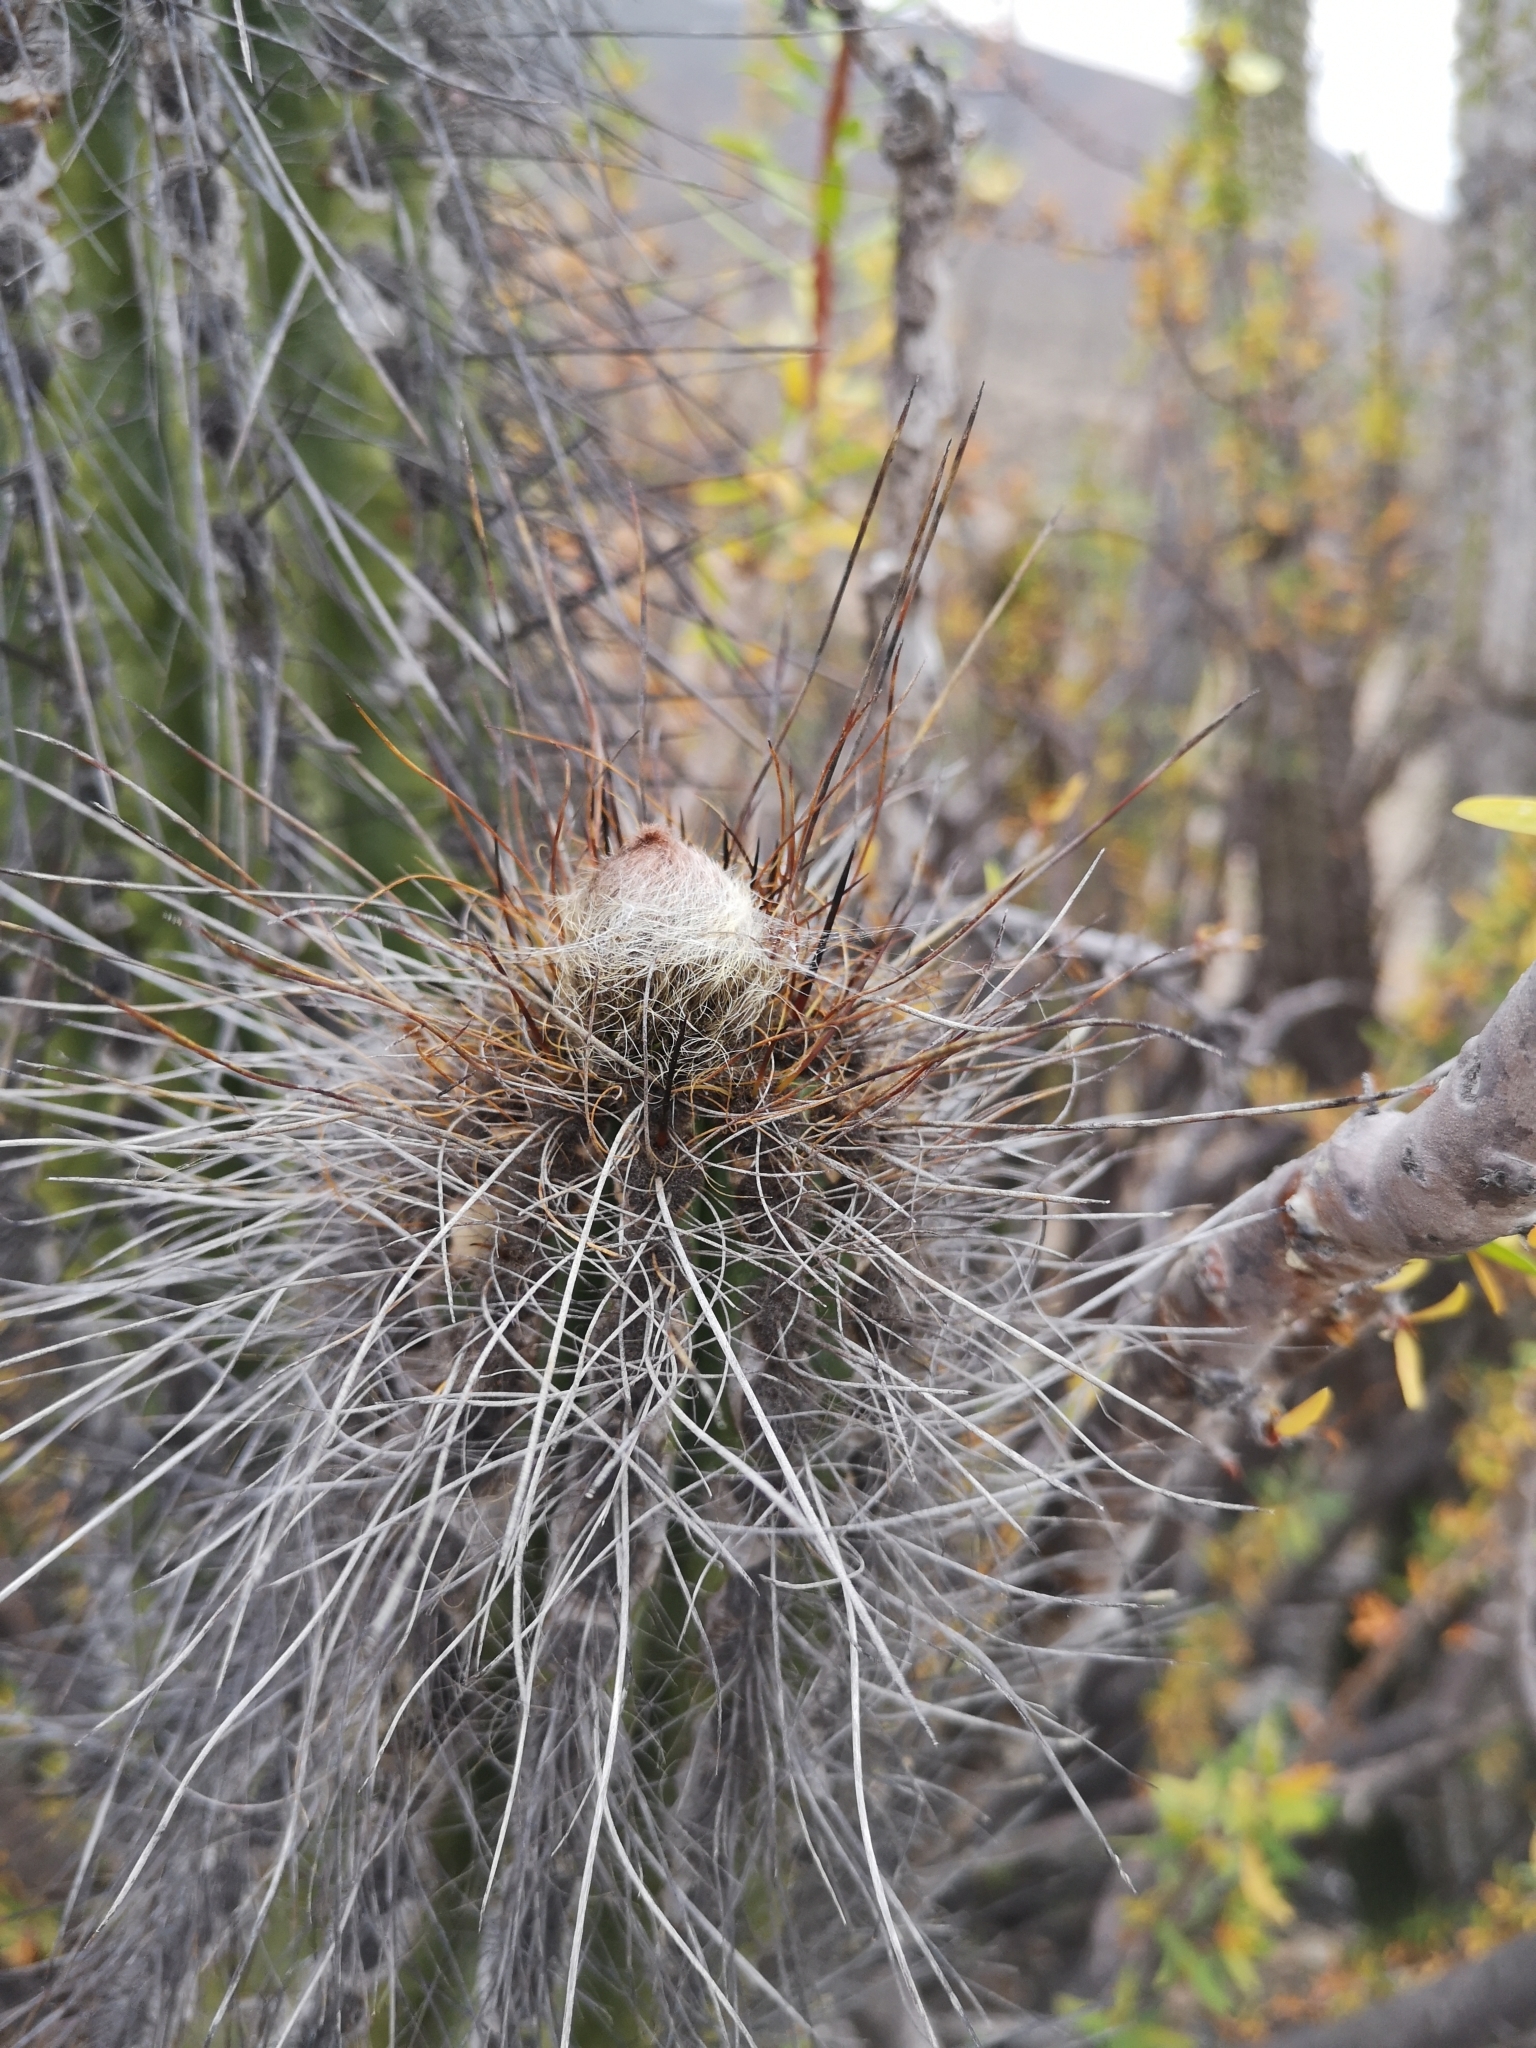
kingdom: Plantae
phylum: Tracheophyta
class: Magnoliopsida
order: Caryophyllales
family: Cactaceae
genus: Eulychnia
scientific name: Eulychnia iquiquensis
